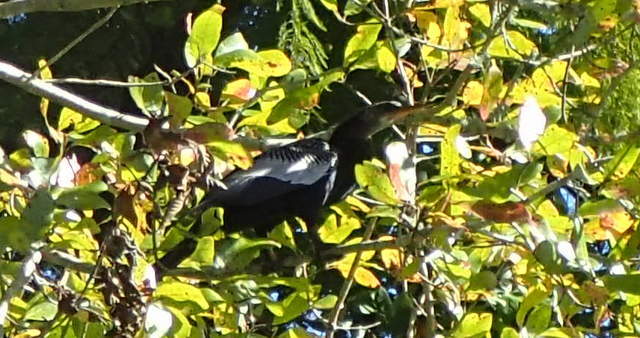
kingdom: Animalia
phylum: Chordata
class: Aves
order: Suliformes
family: Anhingidae
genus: Anhinga
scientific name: Anhinga anhinga
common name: Anhinga
